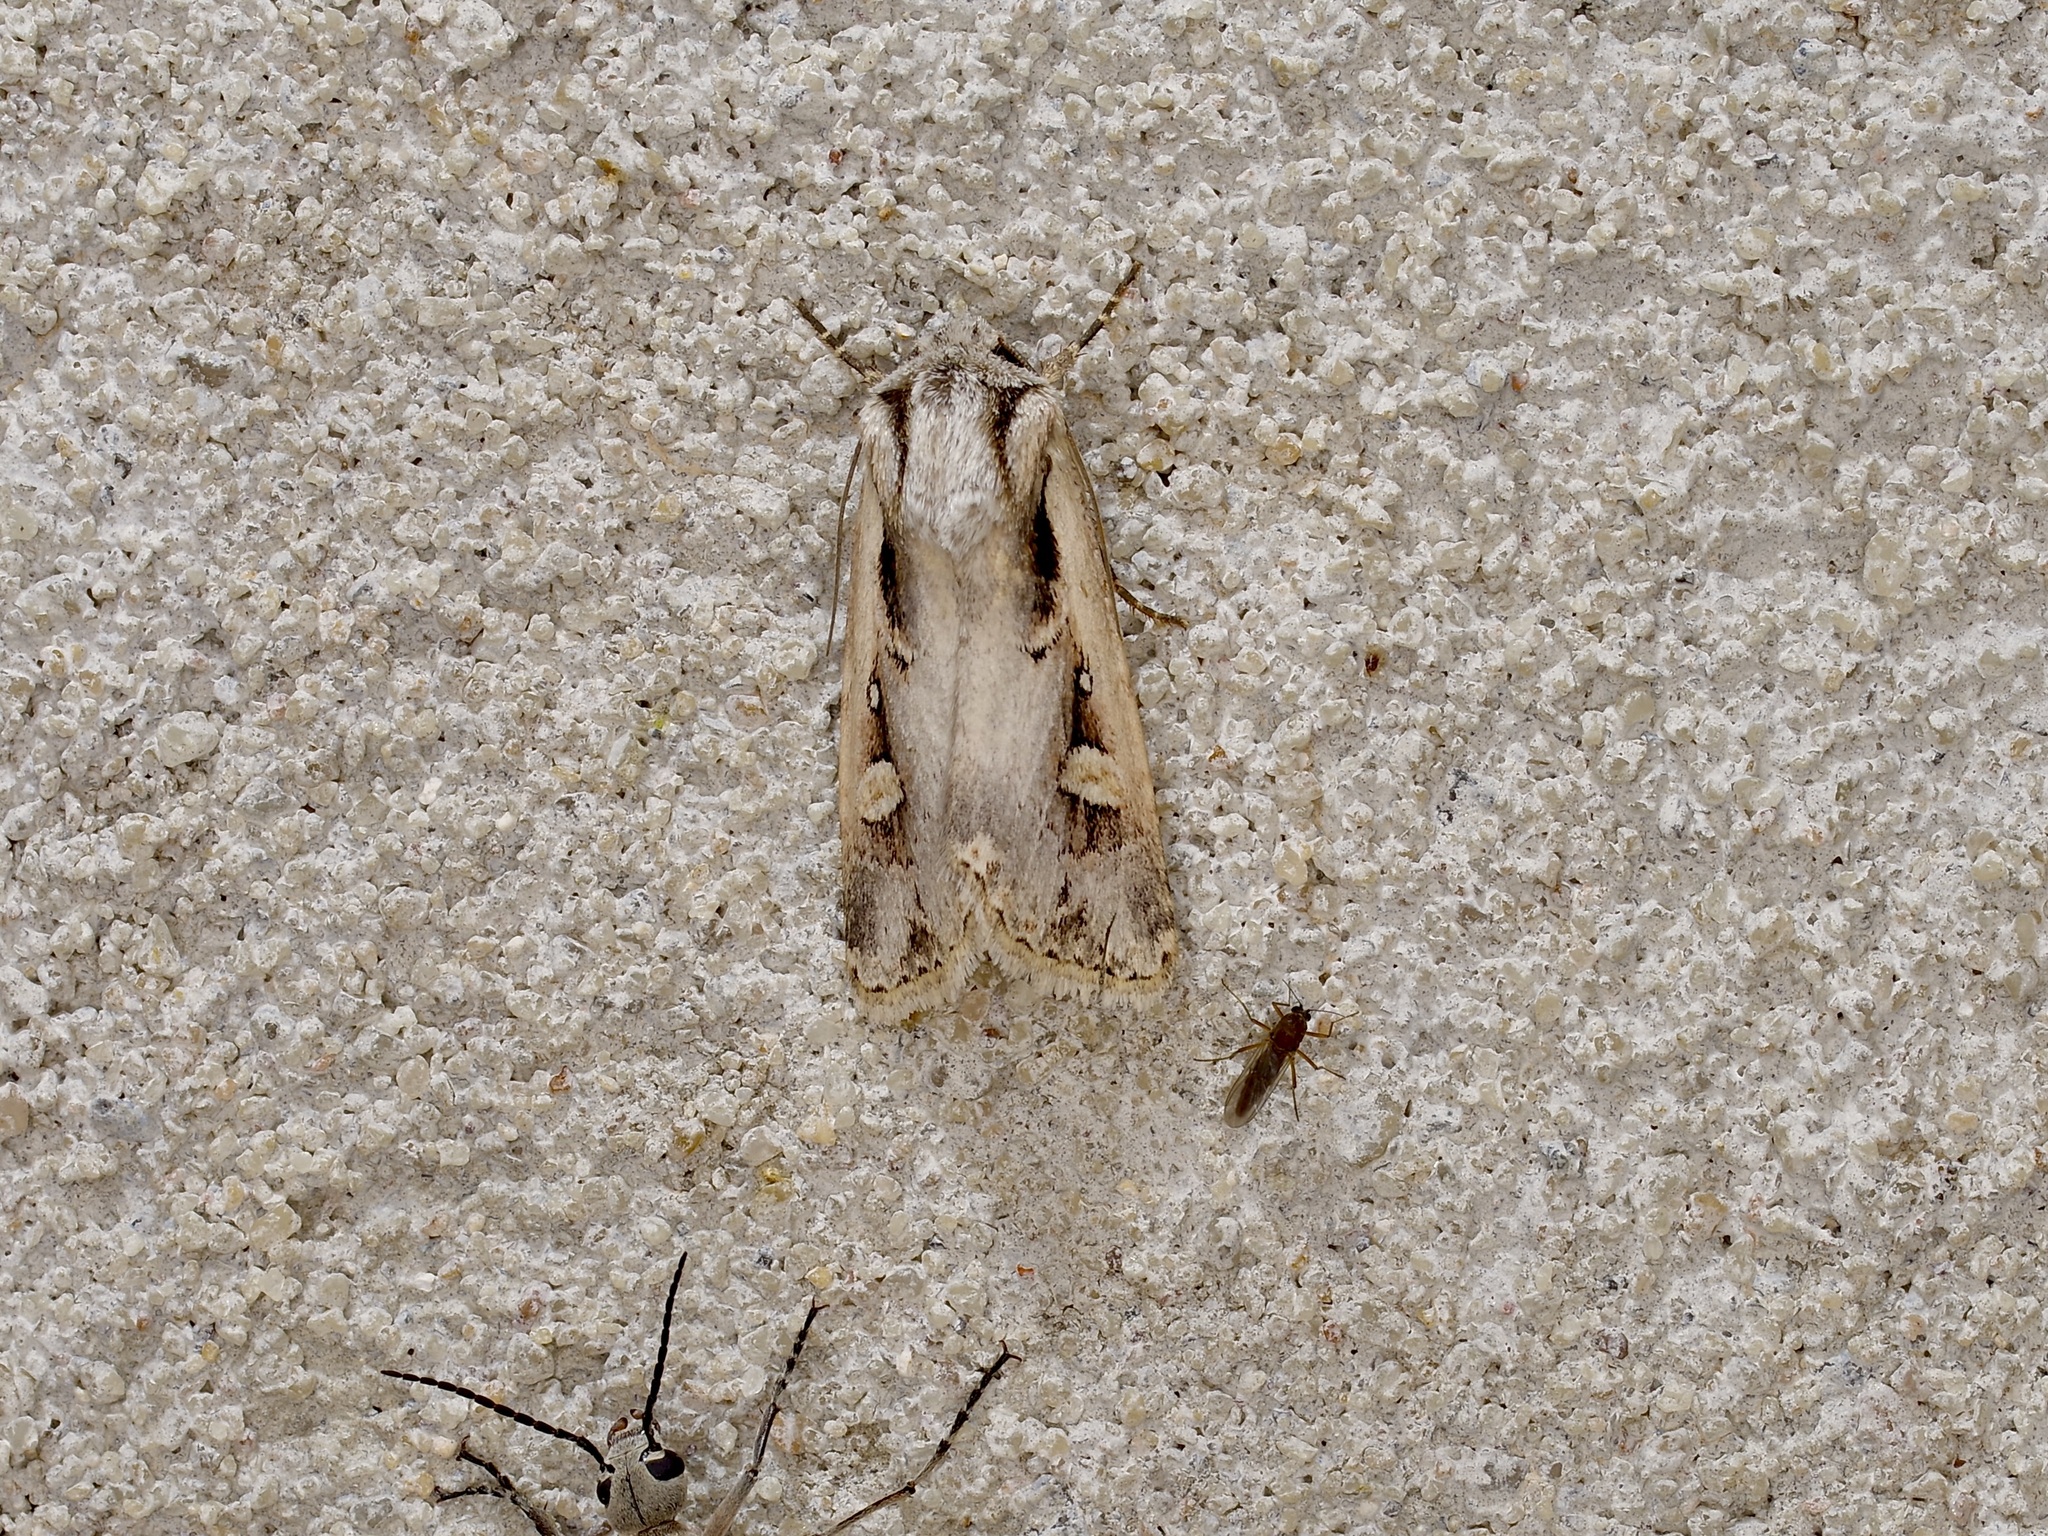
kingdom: Animalia
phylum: Arthropoda
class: Insecta
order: Lepidoptera
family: Noctuidae
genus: Dichagyris
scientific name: Dichagyris arabella
